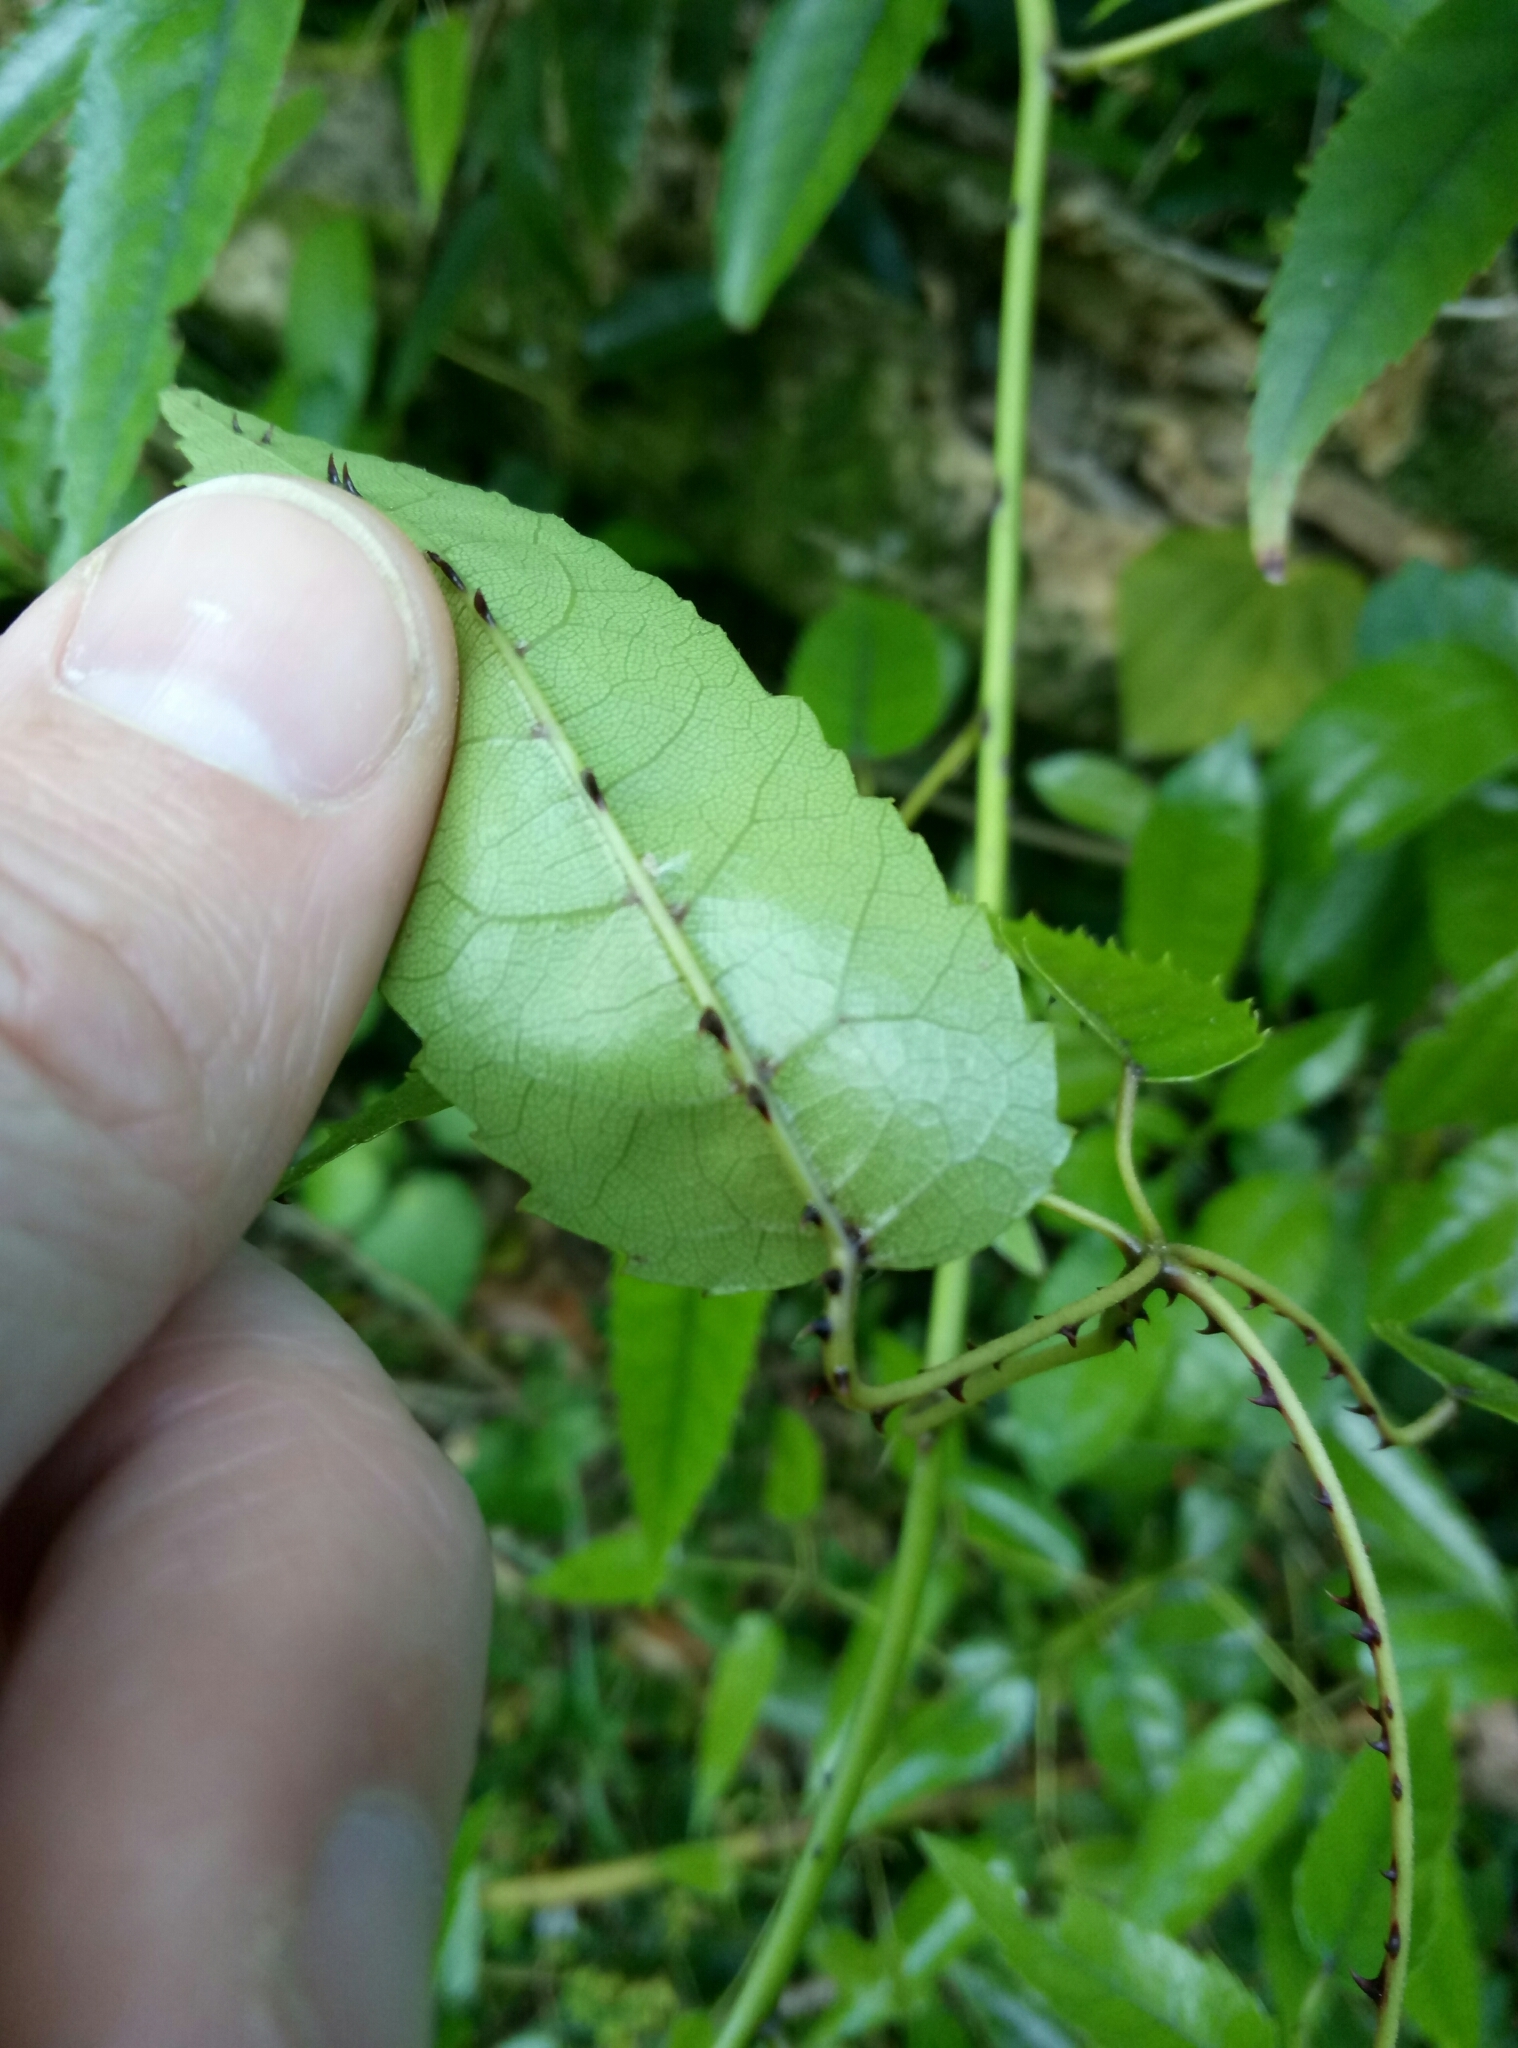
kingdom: Plantae
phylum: Tracheophyta
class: Magnoliopsida
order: Rosales
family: Rosaceae
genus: Rubus
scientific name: Rubus cissoides
